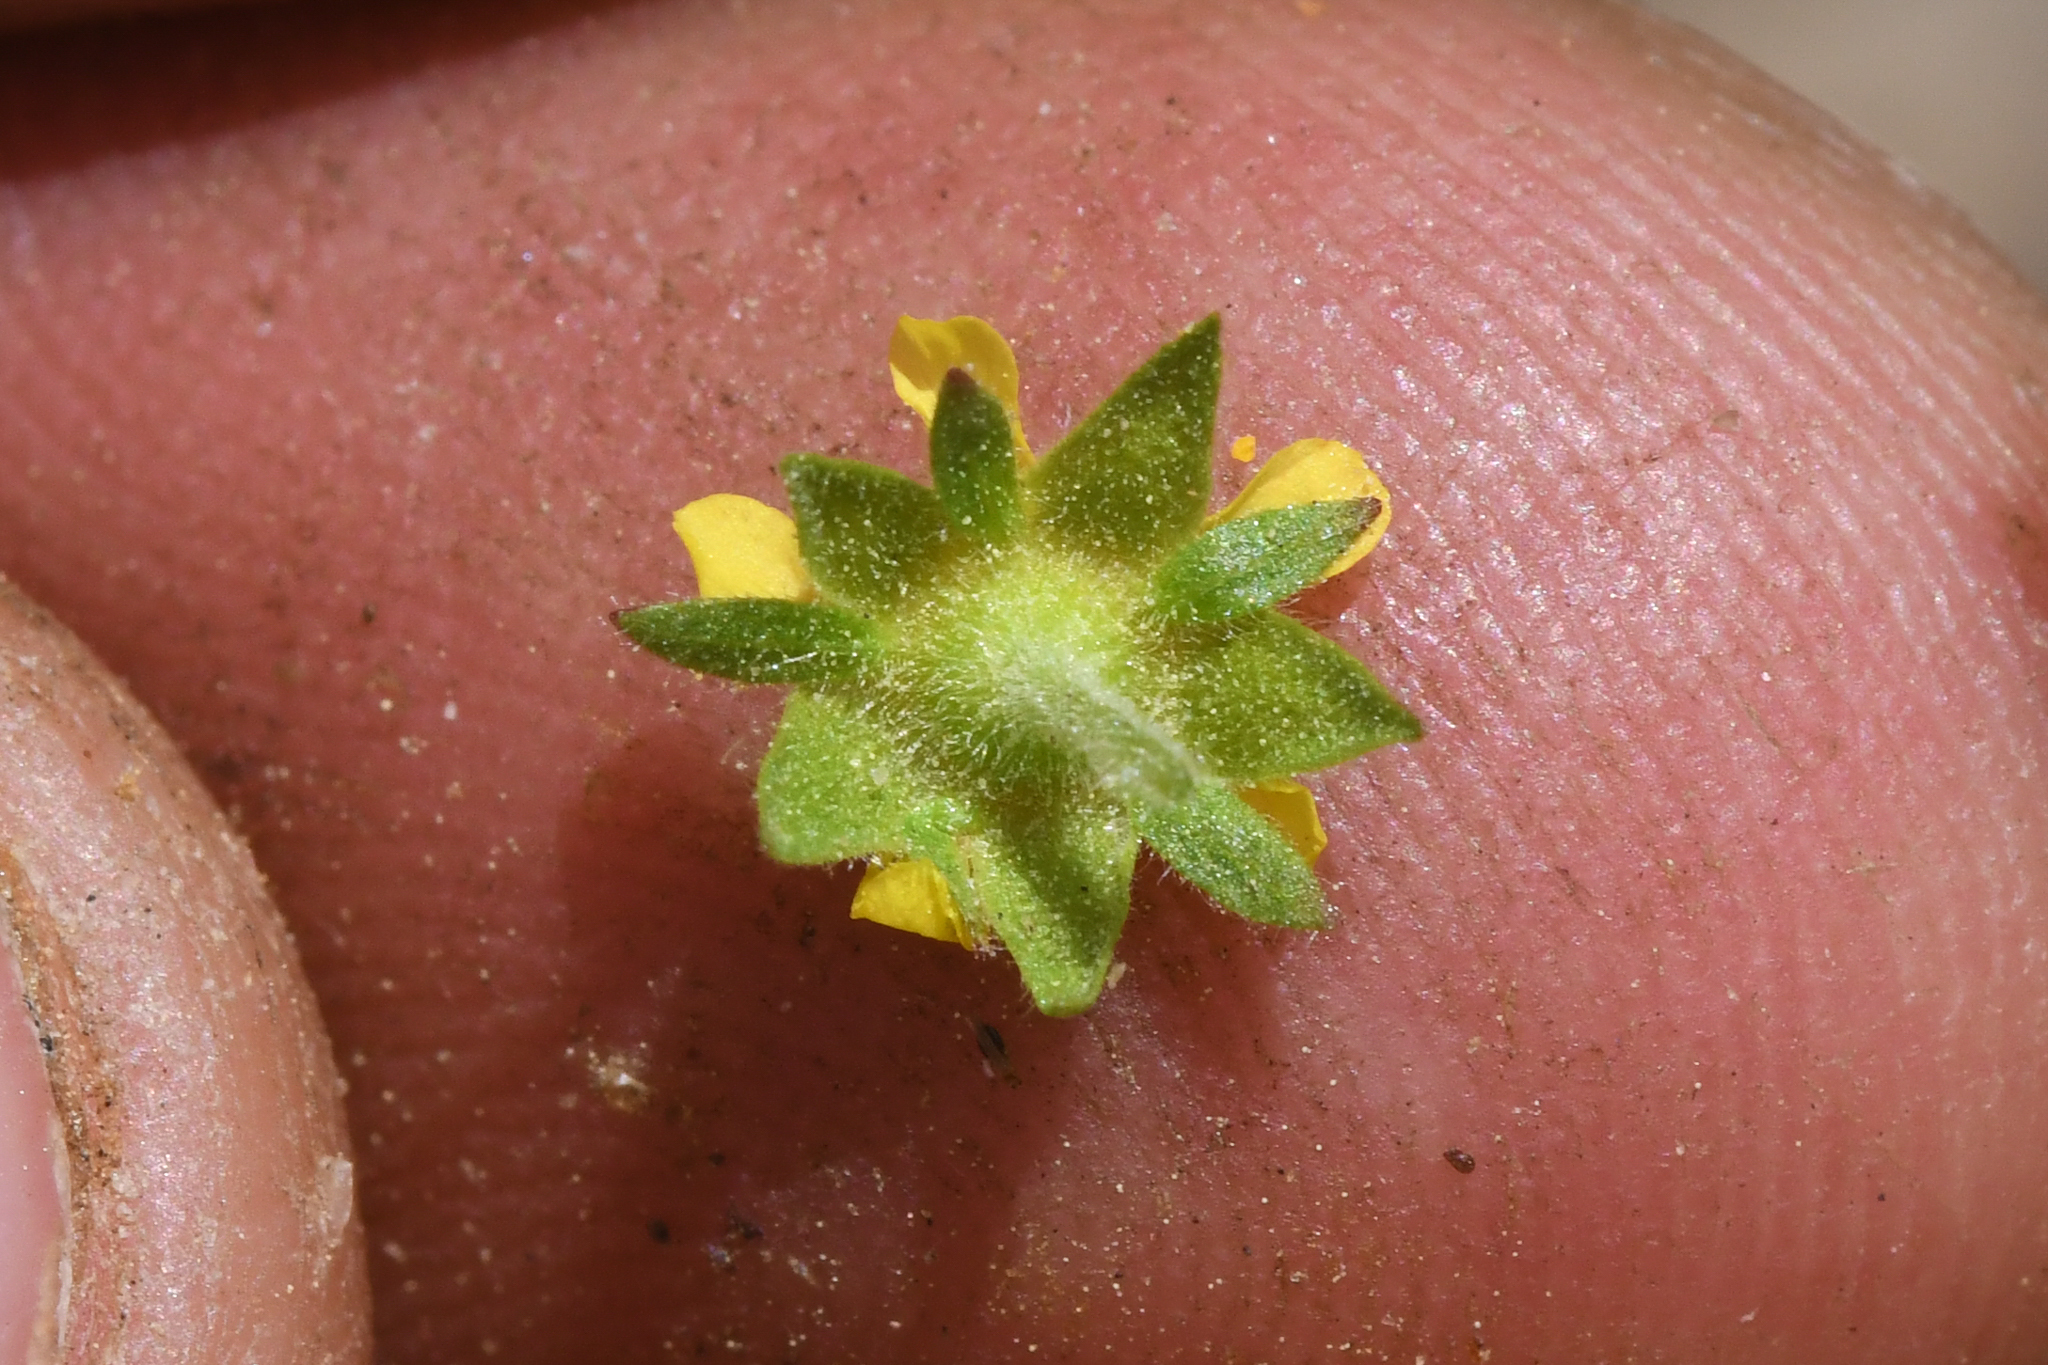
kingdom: Plantae
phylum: Tracheophyta
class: Magnoliopsida
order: Rosales
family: Rosaceae
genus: Potentilla
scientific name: Potentilla biennis
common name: Greene's cinquefoil
